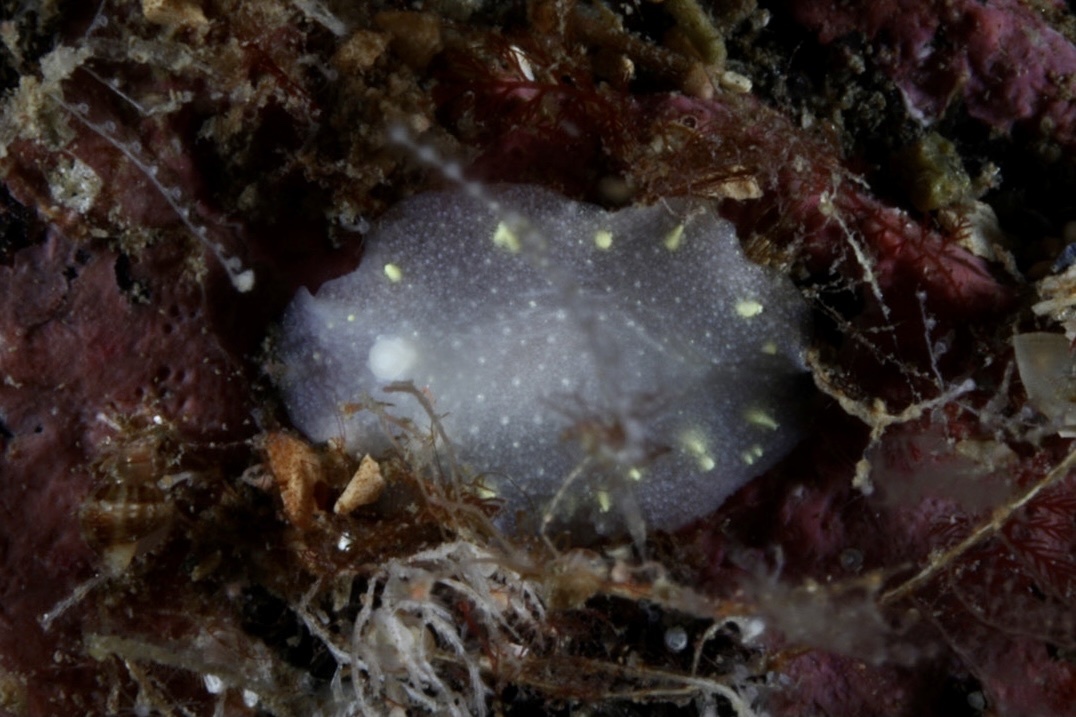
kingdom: Animalia
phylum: Mollusca
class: Gastropoda
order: Nudibranchia
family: Cadlinidae
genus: Cadlina
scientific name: Cadlina laevis
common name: White atlantic cadlina
